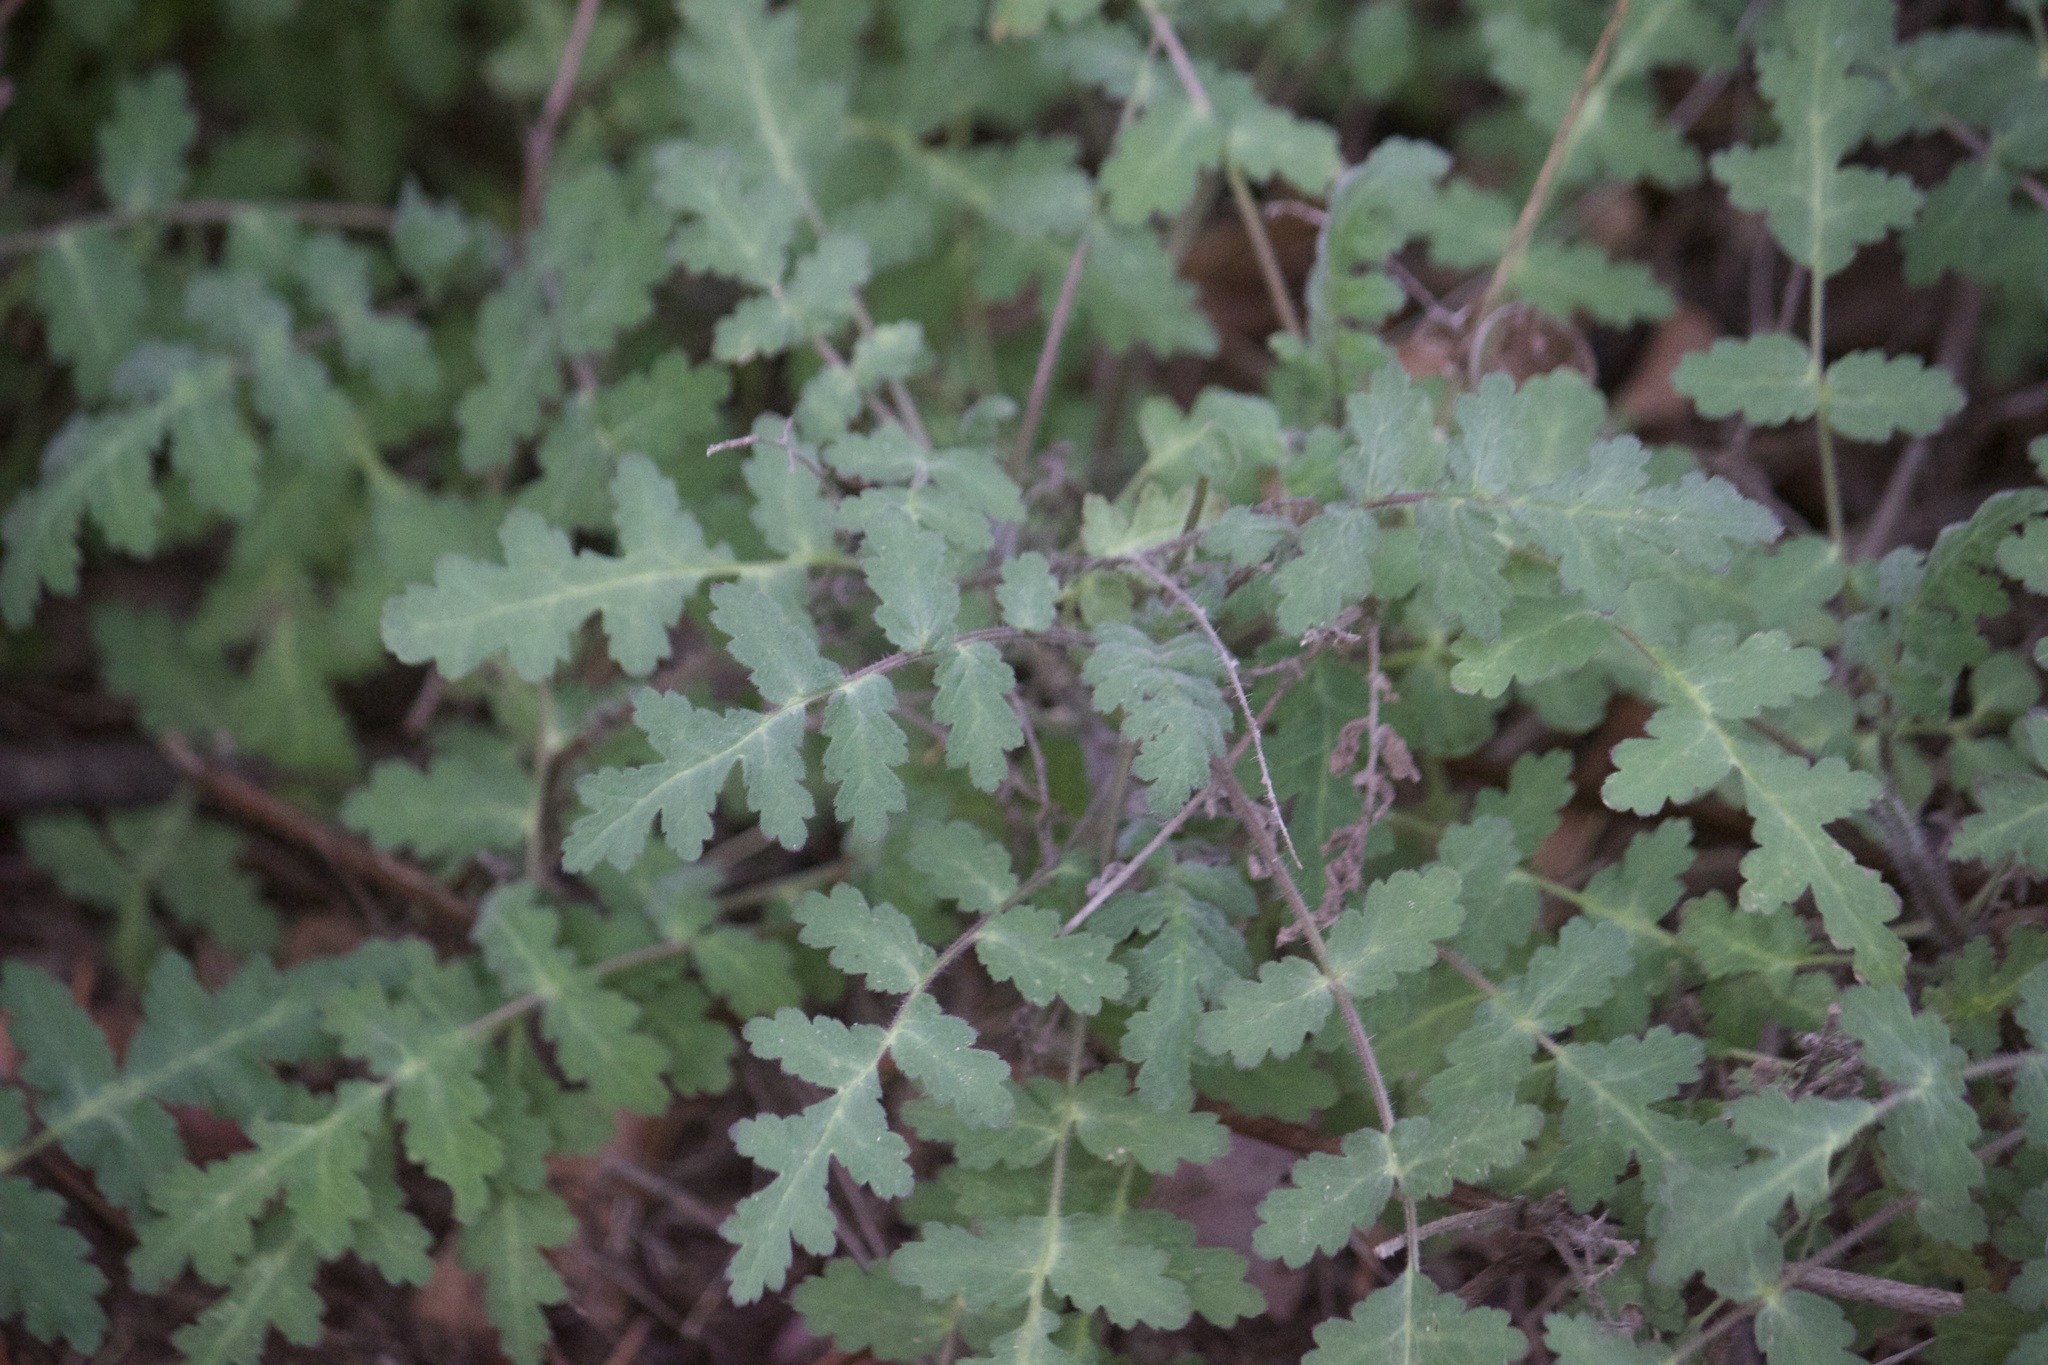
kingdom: Plantae
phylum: Tracheophyta
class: Magnoliopsida
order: Boraginales
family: Hydrophyllaceae
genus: Phacelia
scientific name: Phacelia
